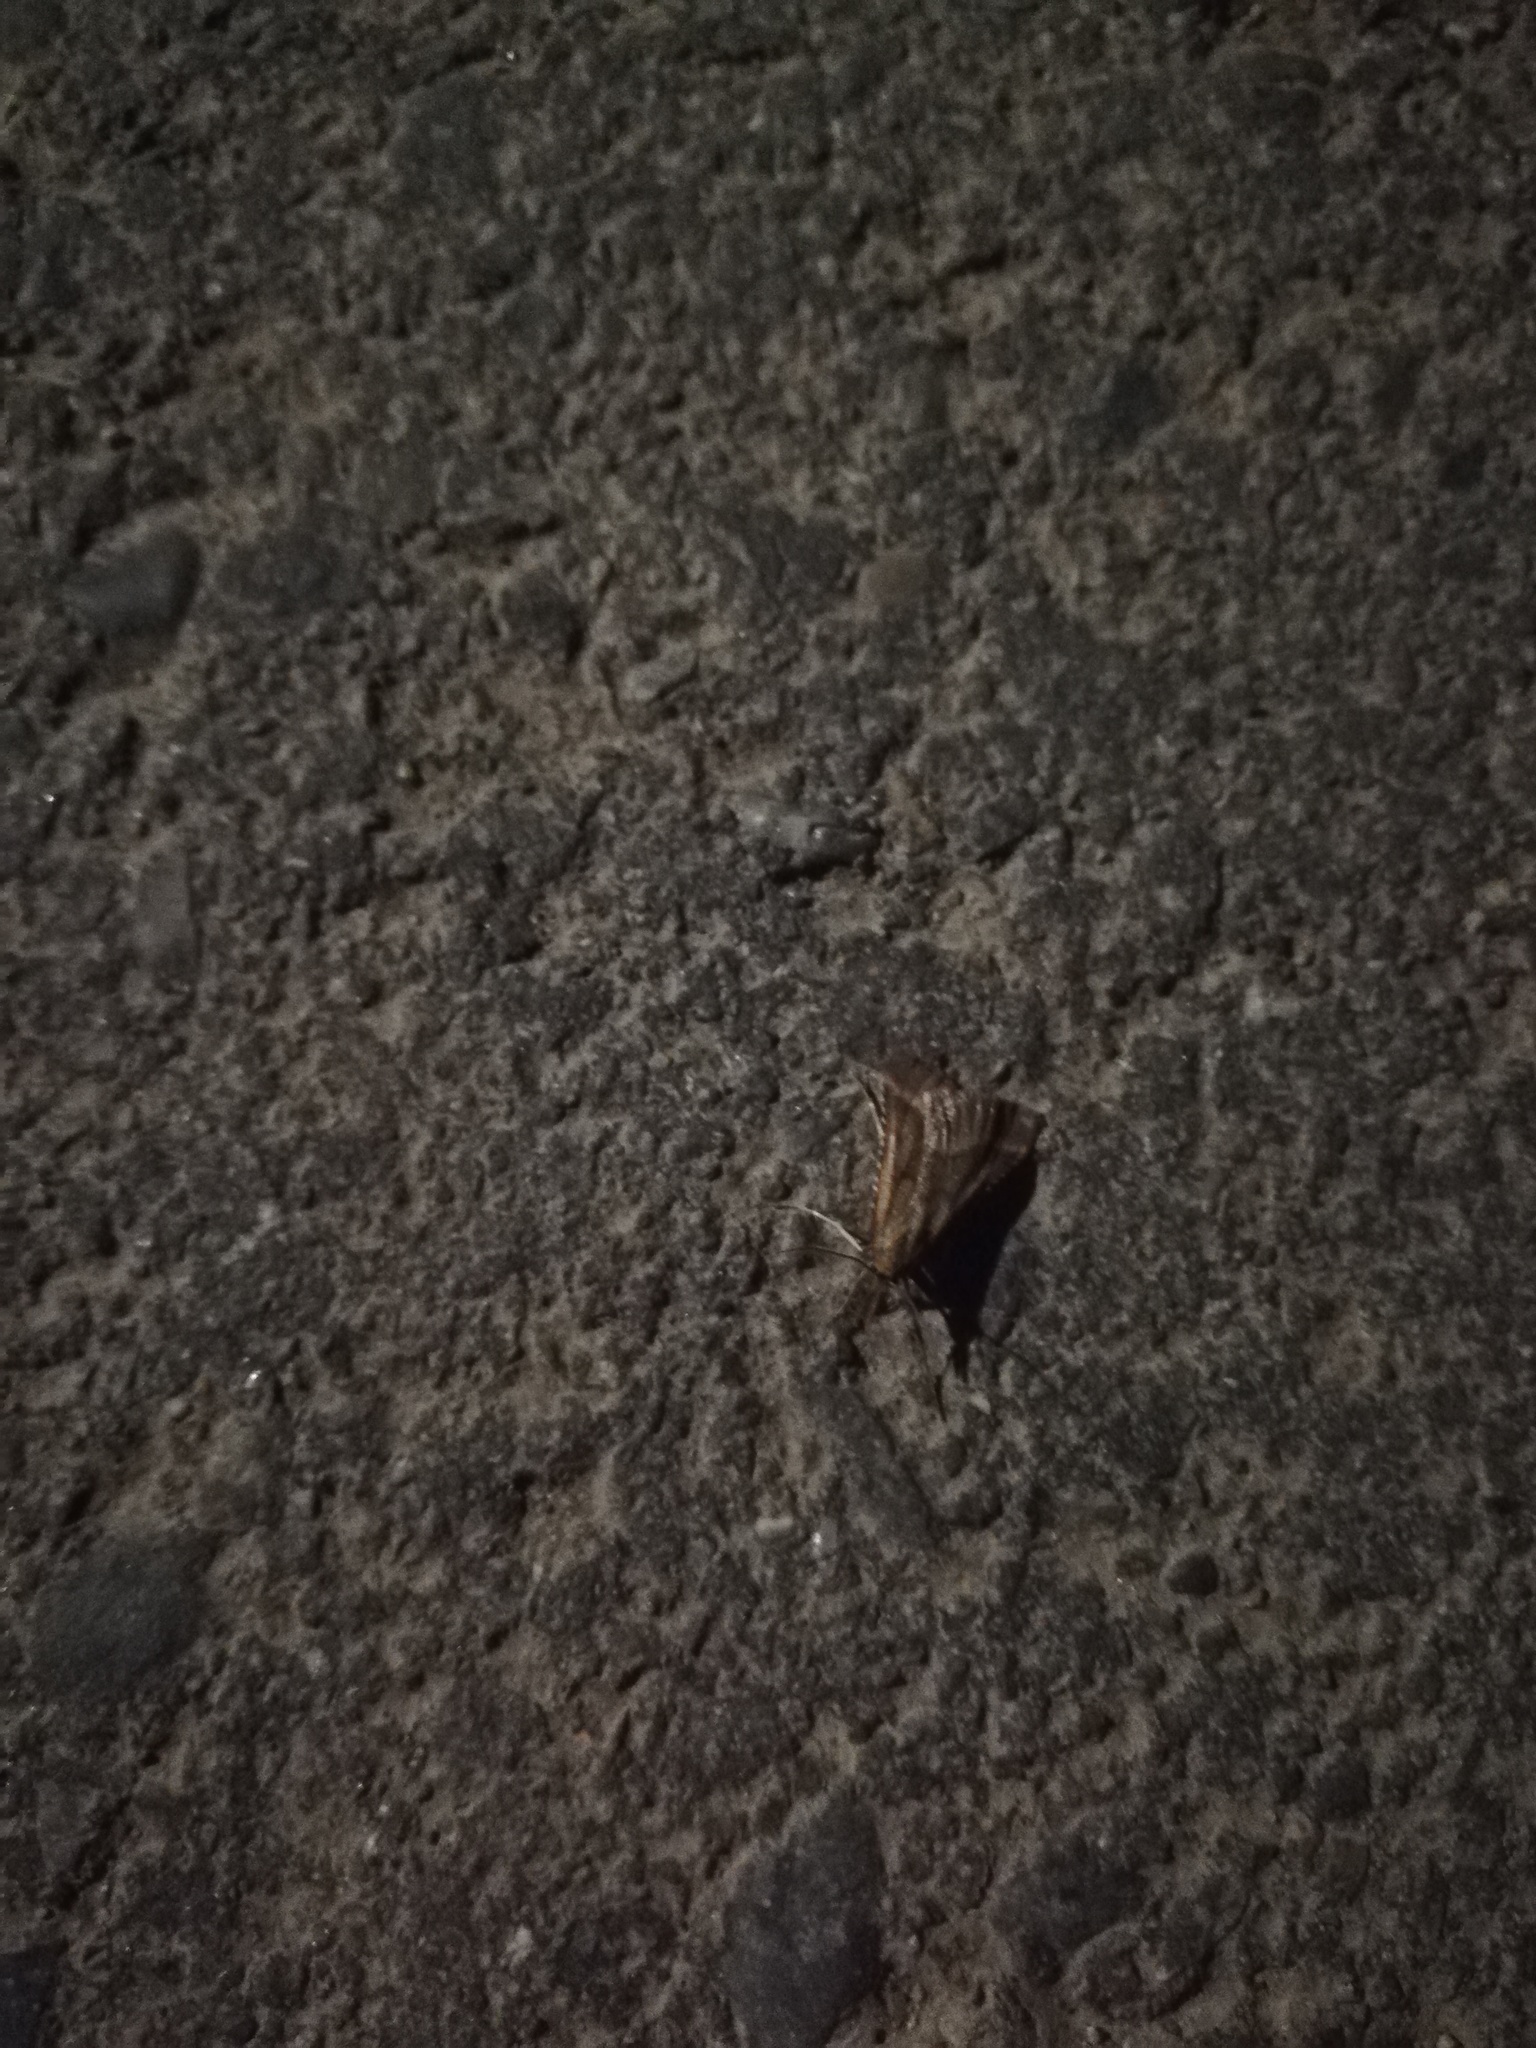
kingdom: Animalia
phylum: Arthropoda
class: Insecta
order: Lepidoptera
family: Pyralidae
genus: Synaphe
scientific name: Synaphe punctalis
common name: Long-legged tabby
